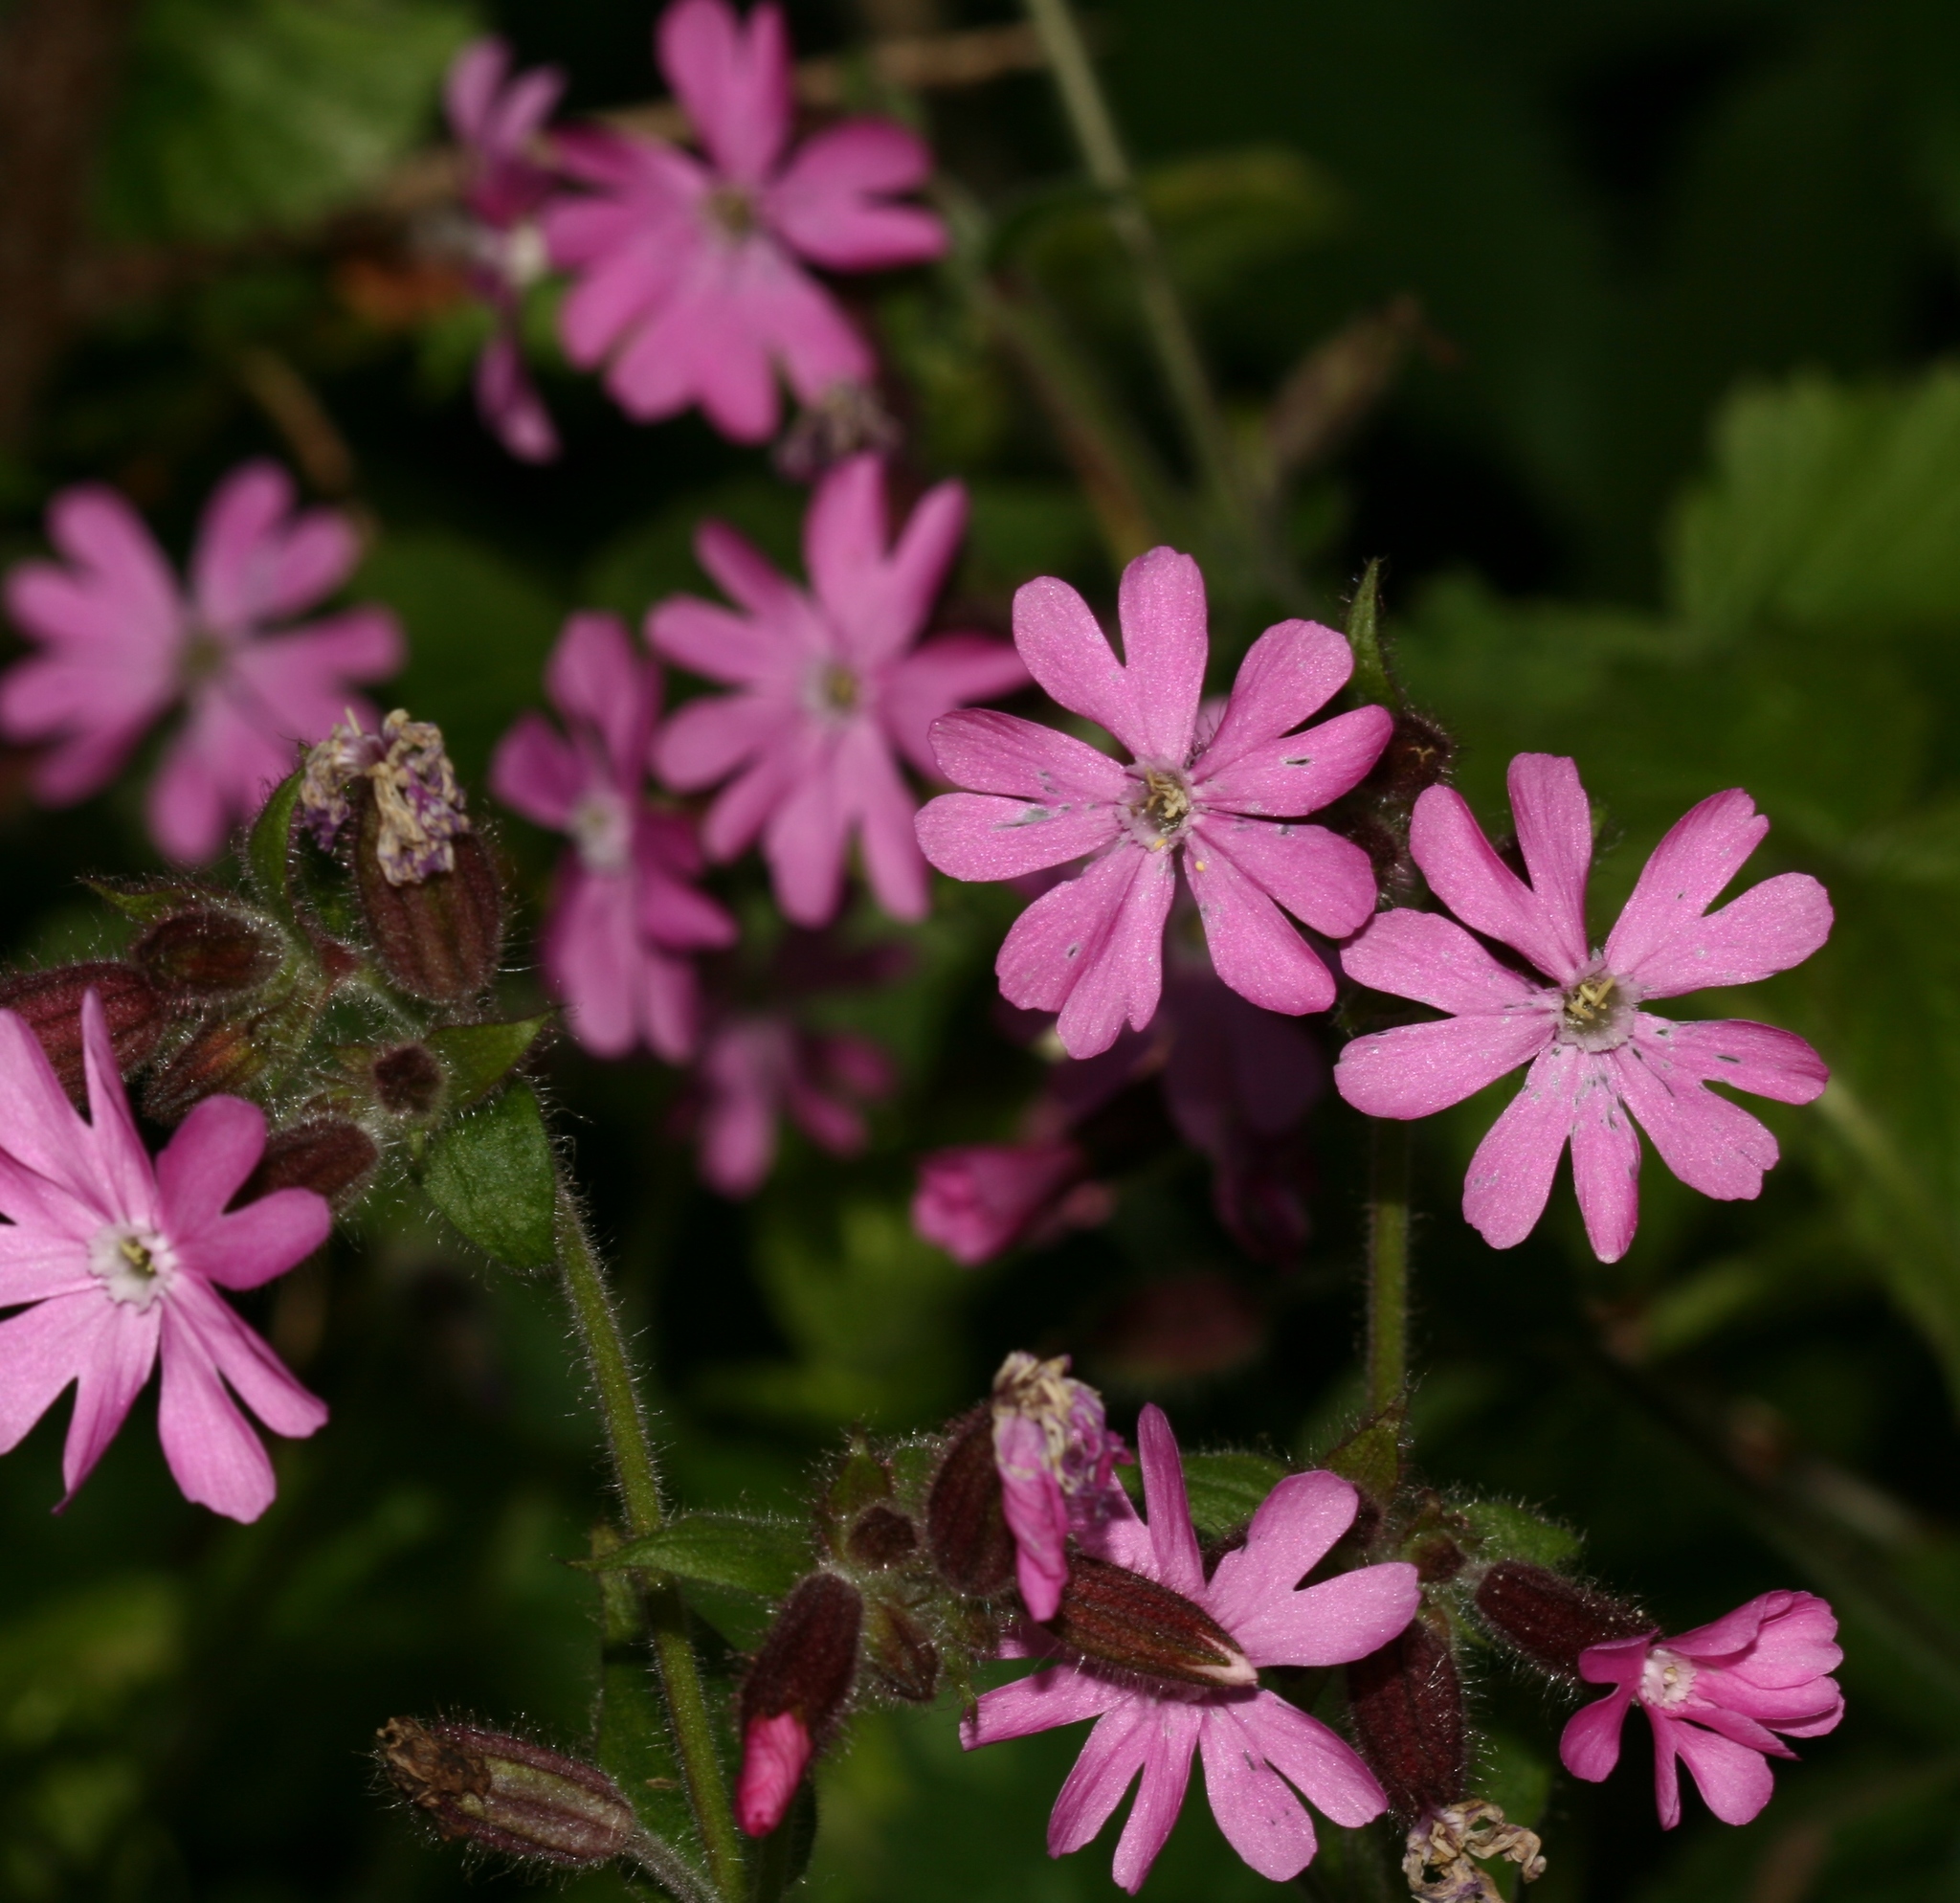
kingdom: Plantae
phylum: Tracheophyta
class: Magnoliopsida
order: Caryophyllales
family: Caryophyllaceae
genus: Silene
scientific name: Silene dioica
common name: Red campion
